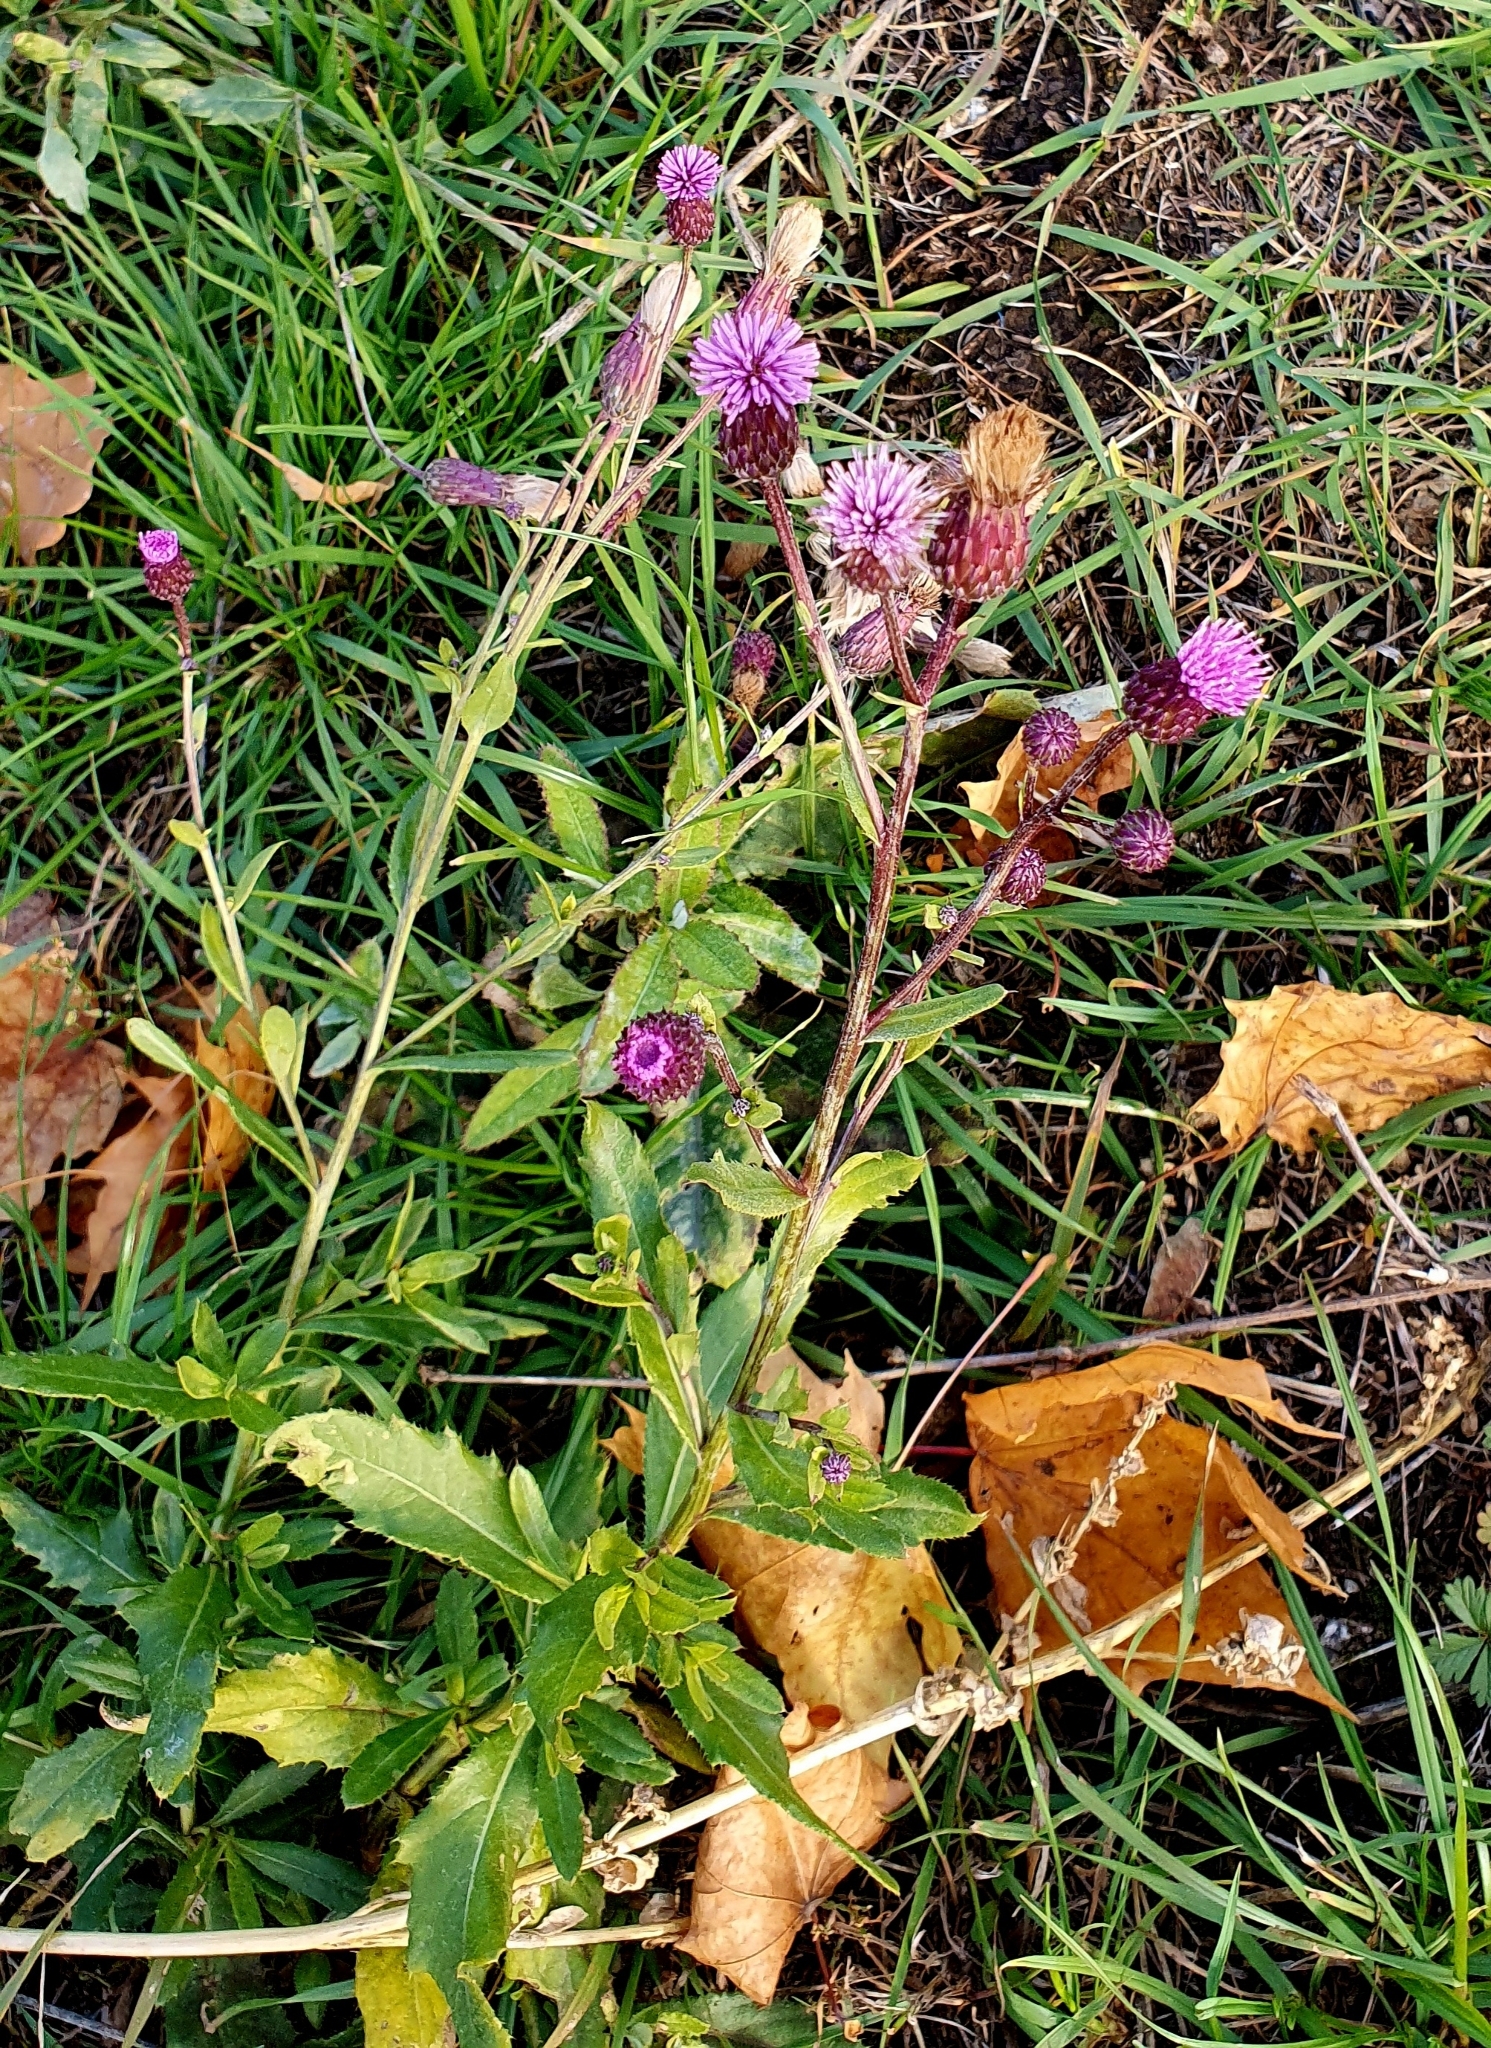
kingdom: Plantae
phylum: Tracheophyta
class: Magnoliopsida
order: Asterales
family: Asteraceae
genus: Cirsium
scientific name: Cirsium arvense
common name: Creeping thistle
